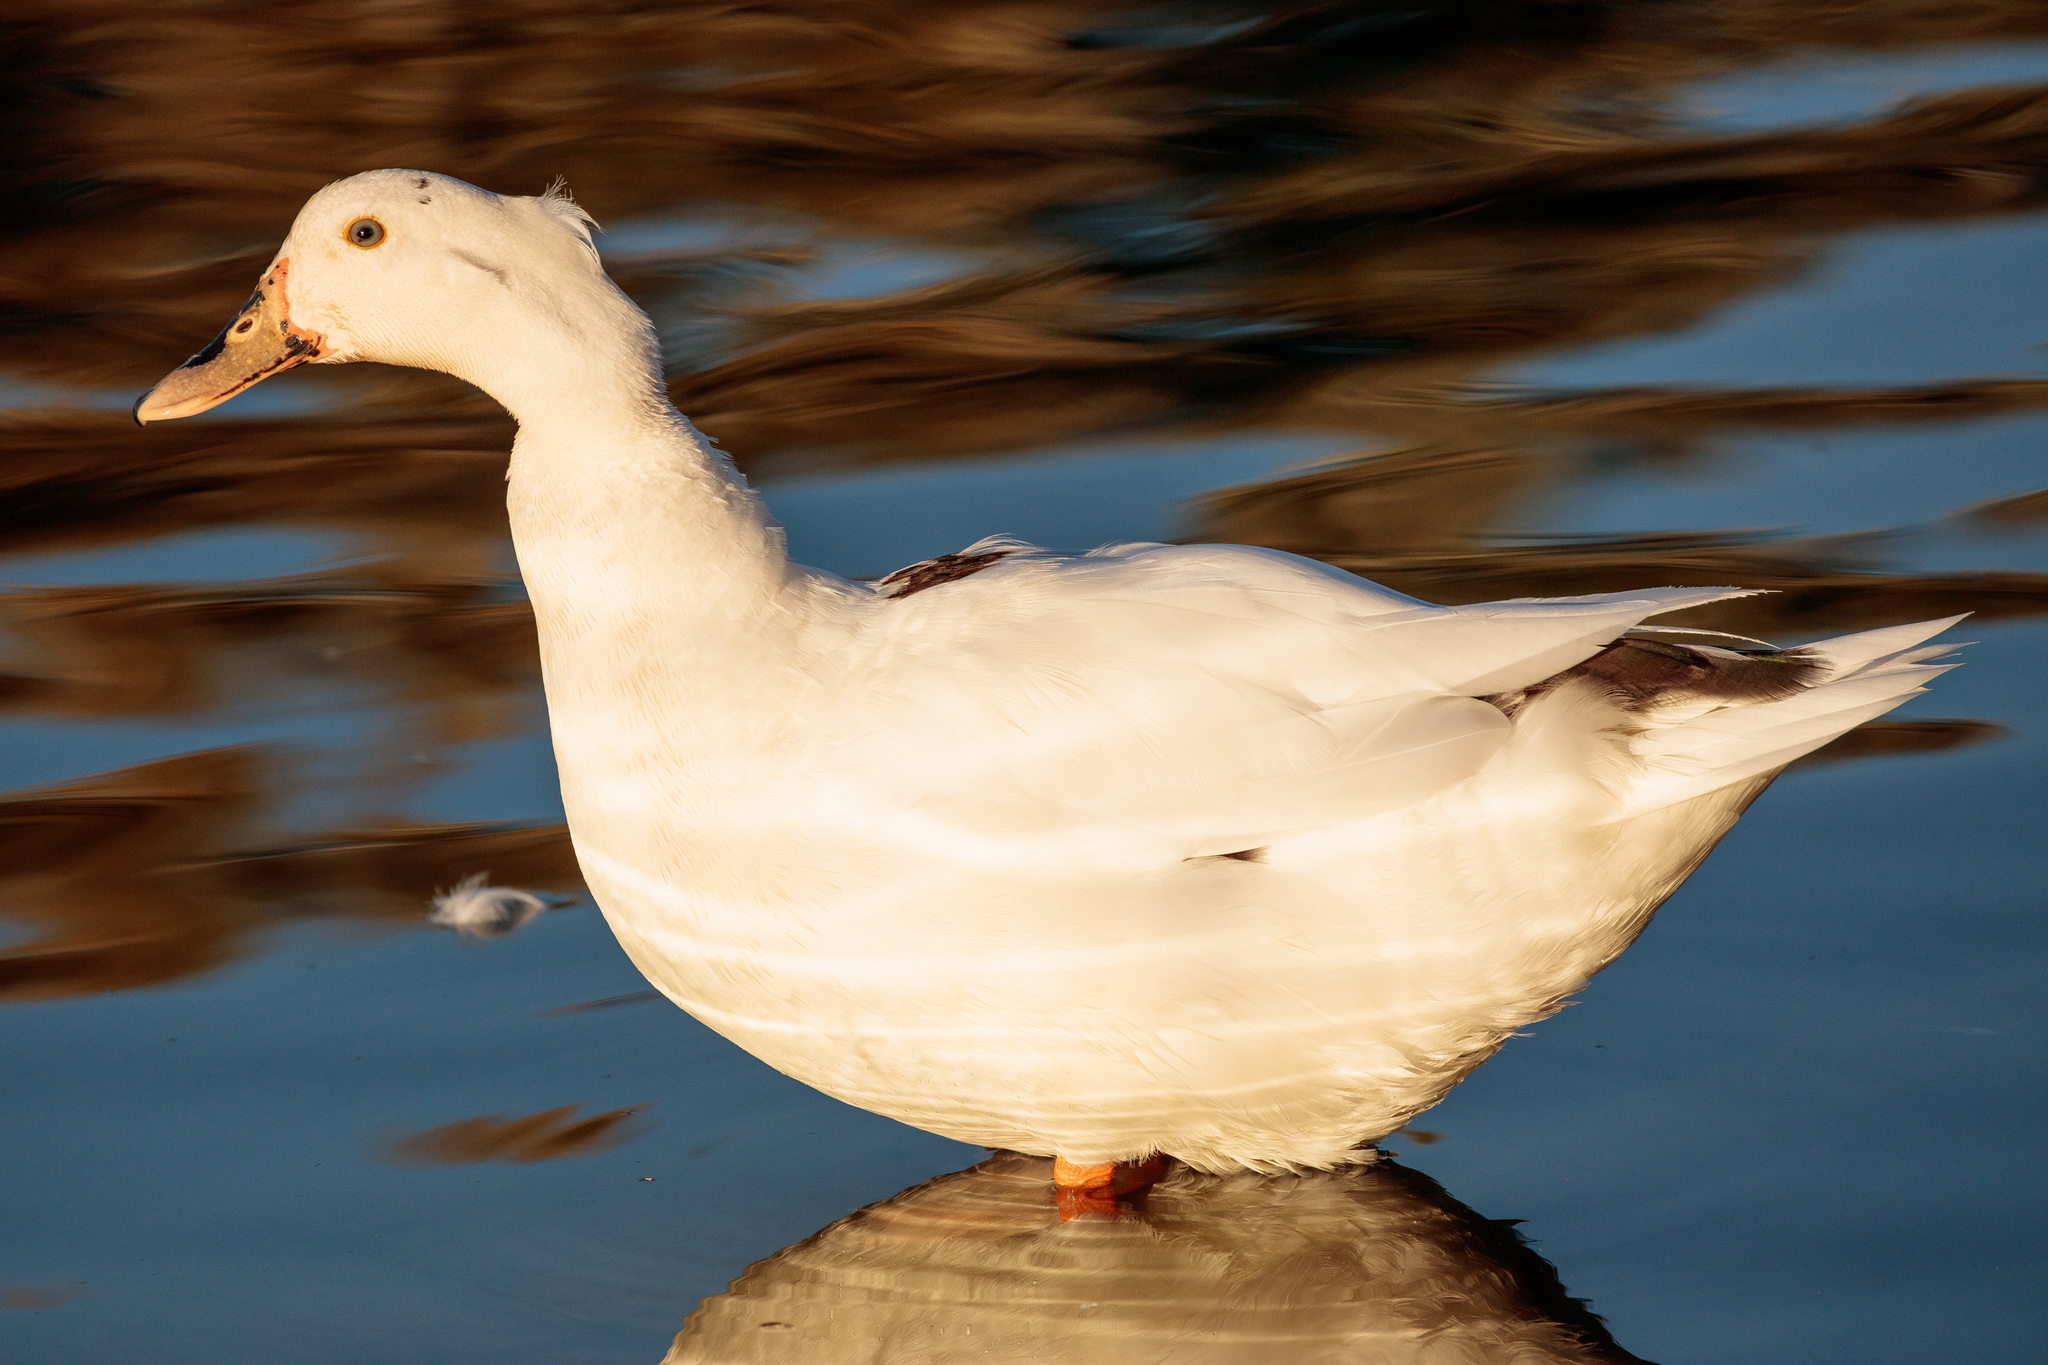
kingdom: Animalia
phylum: Chordata
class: Aves
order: Anseriformes
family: Anatidae
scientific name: Anatidae
